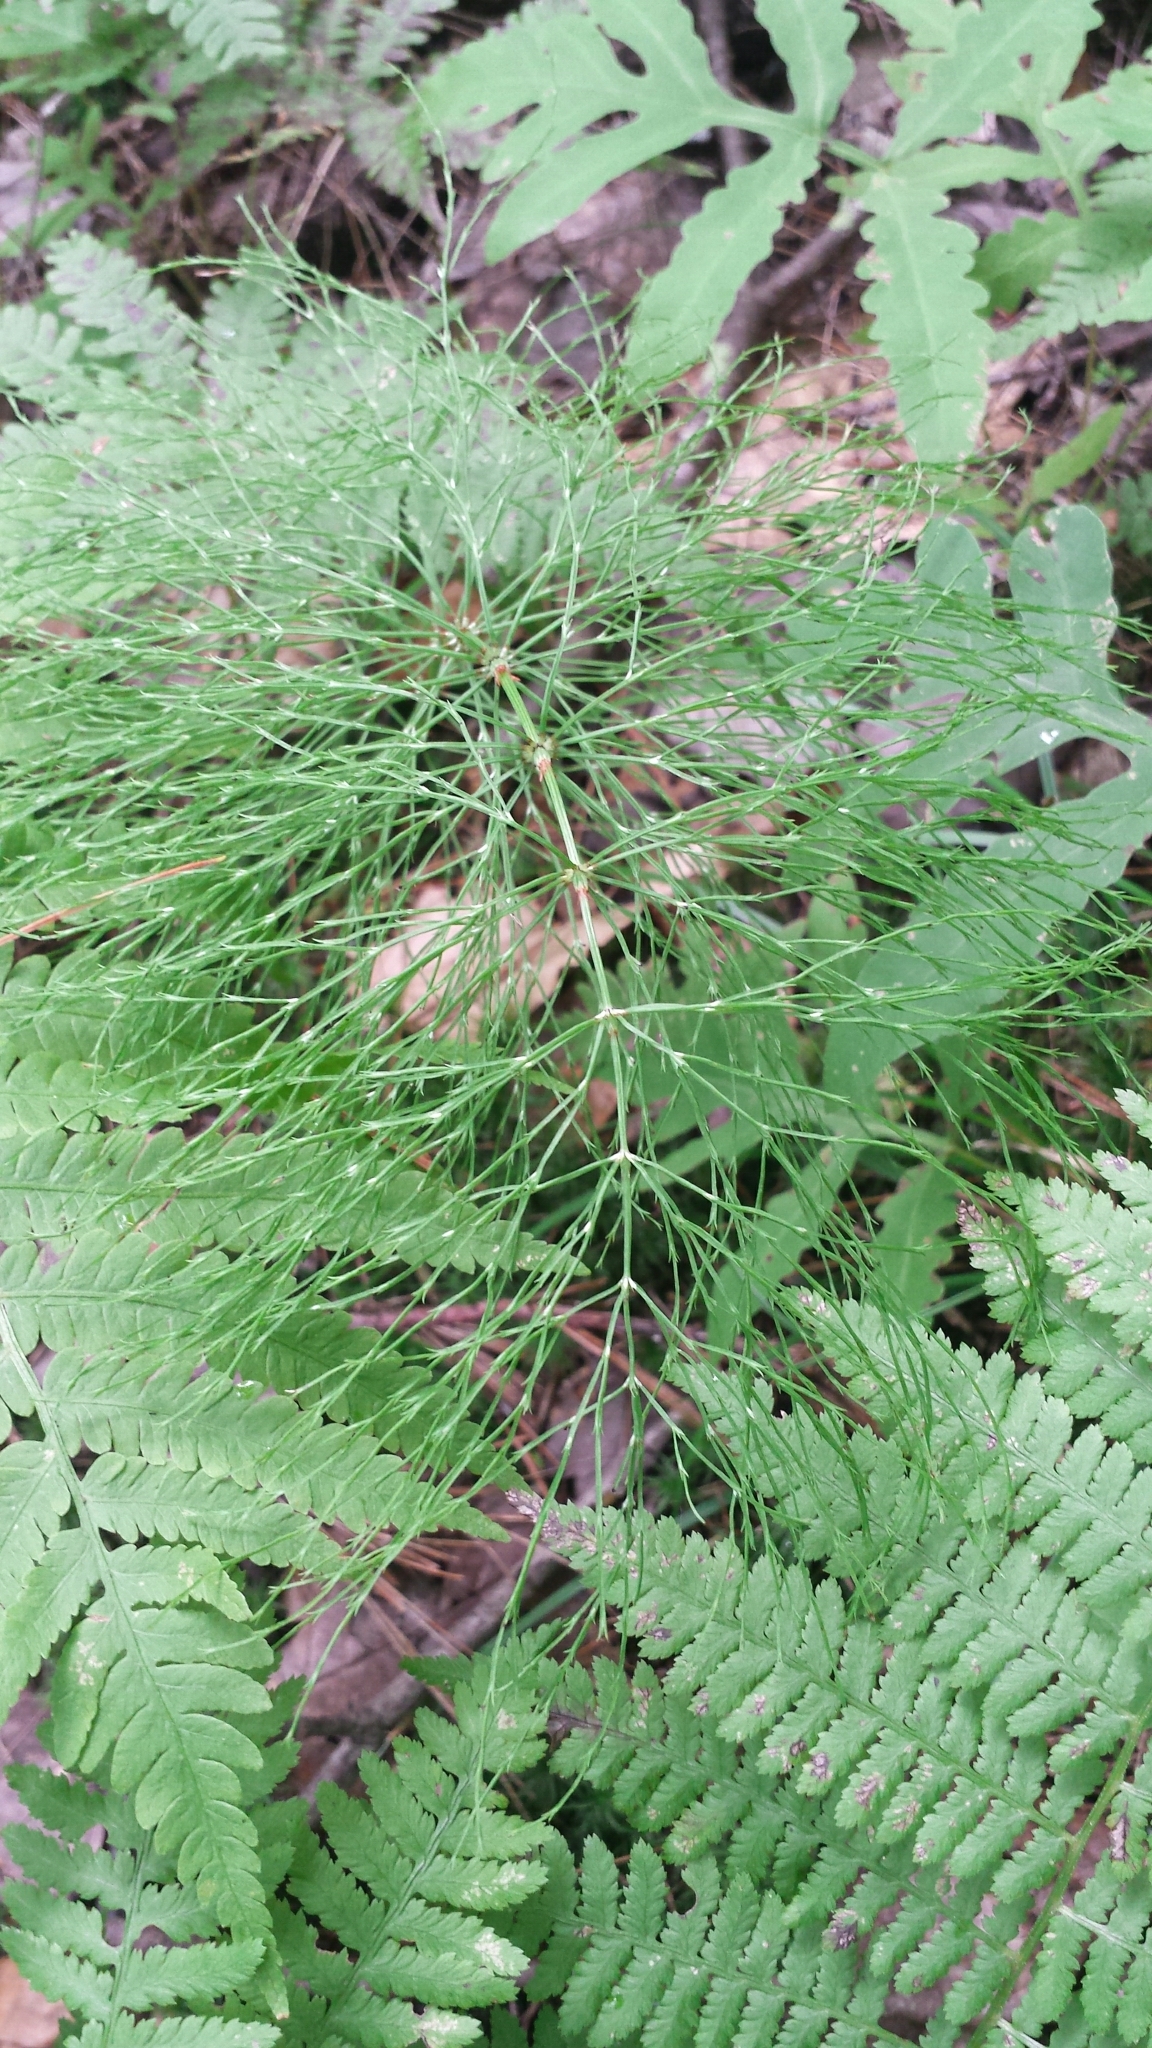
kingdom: Plantae
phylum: Tracheophyta
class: Polypodiopsida
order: Equisetales
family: Equisetaceae
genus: Equisetum
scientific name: Equisetum sylvaticum
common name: Wood horsetail
